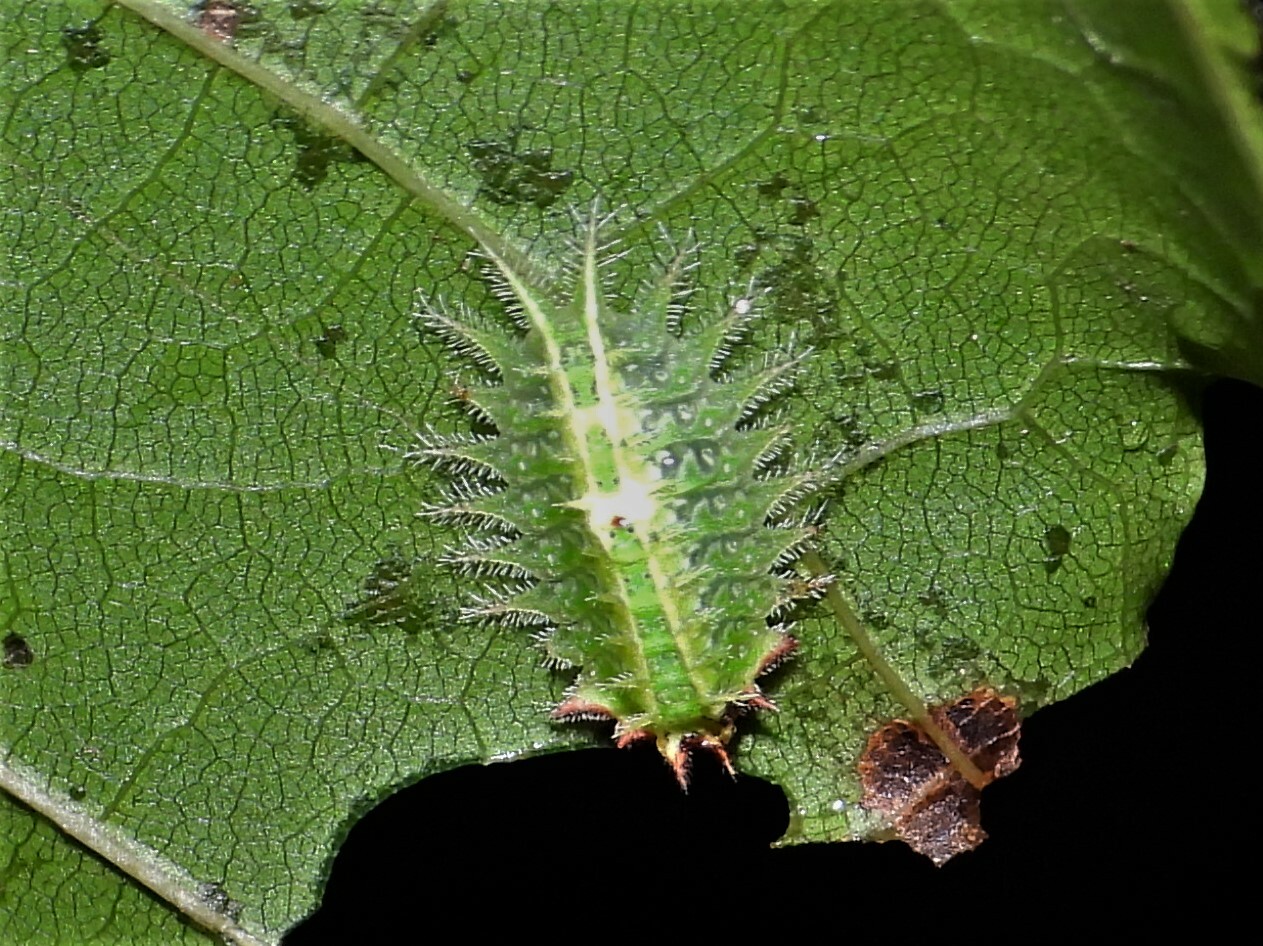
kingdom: Animalia
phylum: Arthropoda
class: Insecta
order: Lepidoptera
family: Limacodidae
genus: Isa
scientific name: Isa textula
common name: Crowned slug moth
